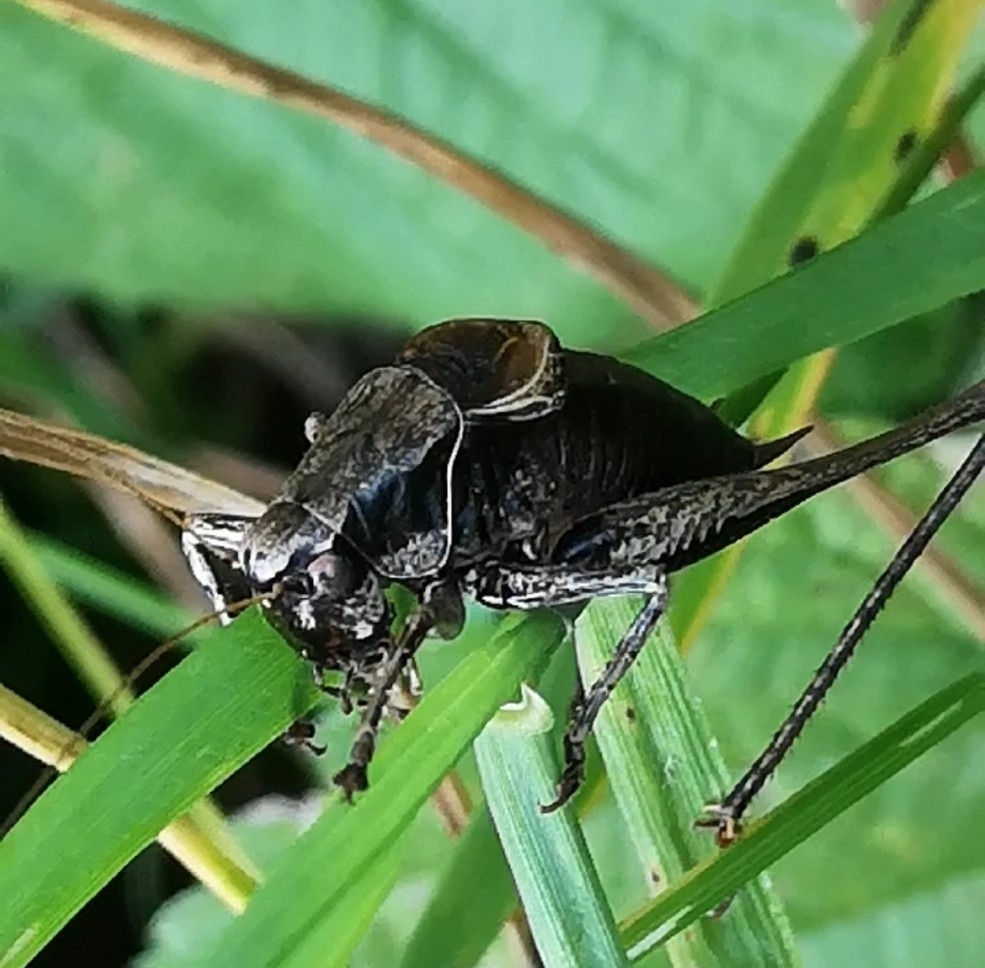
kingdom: Animalia
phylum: Arthropoda
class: Insecta
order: Orthoptera
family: Tettigoniidae
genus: Pholidoptera
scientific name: Pholidoptera griseoaptera
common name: Dark bush-cricket
